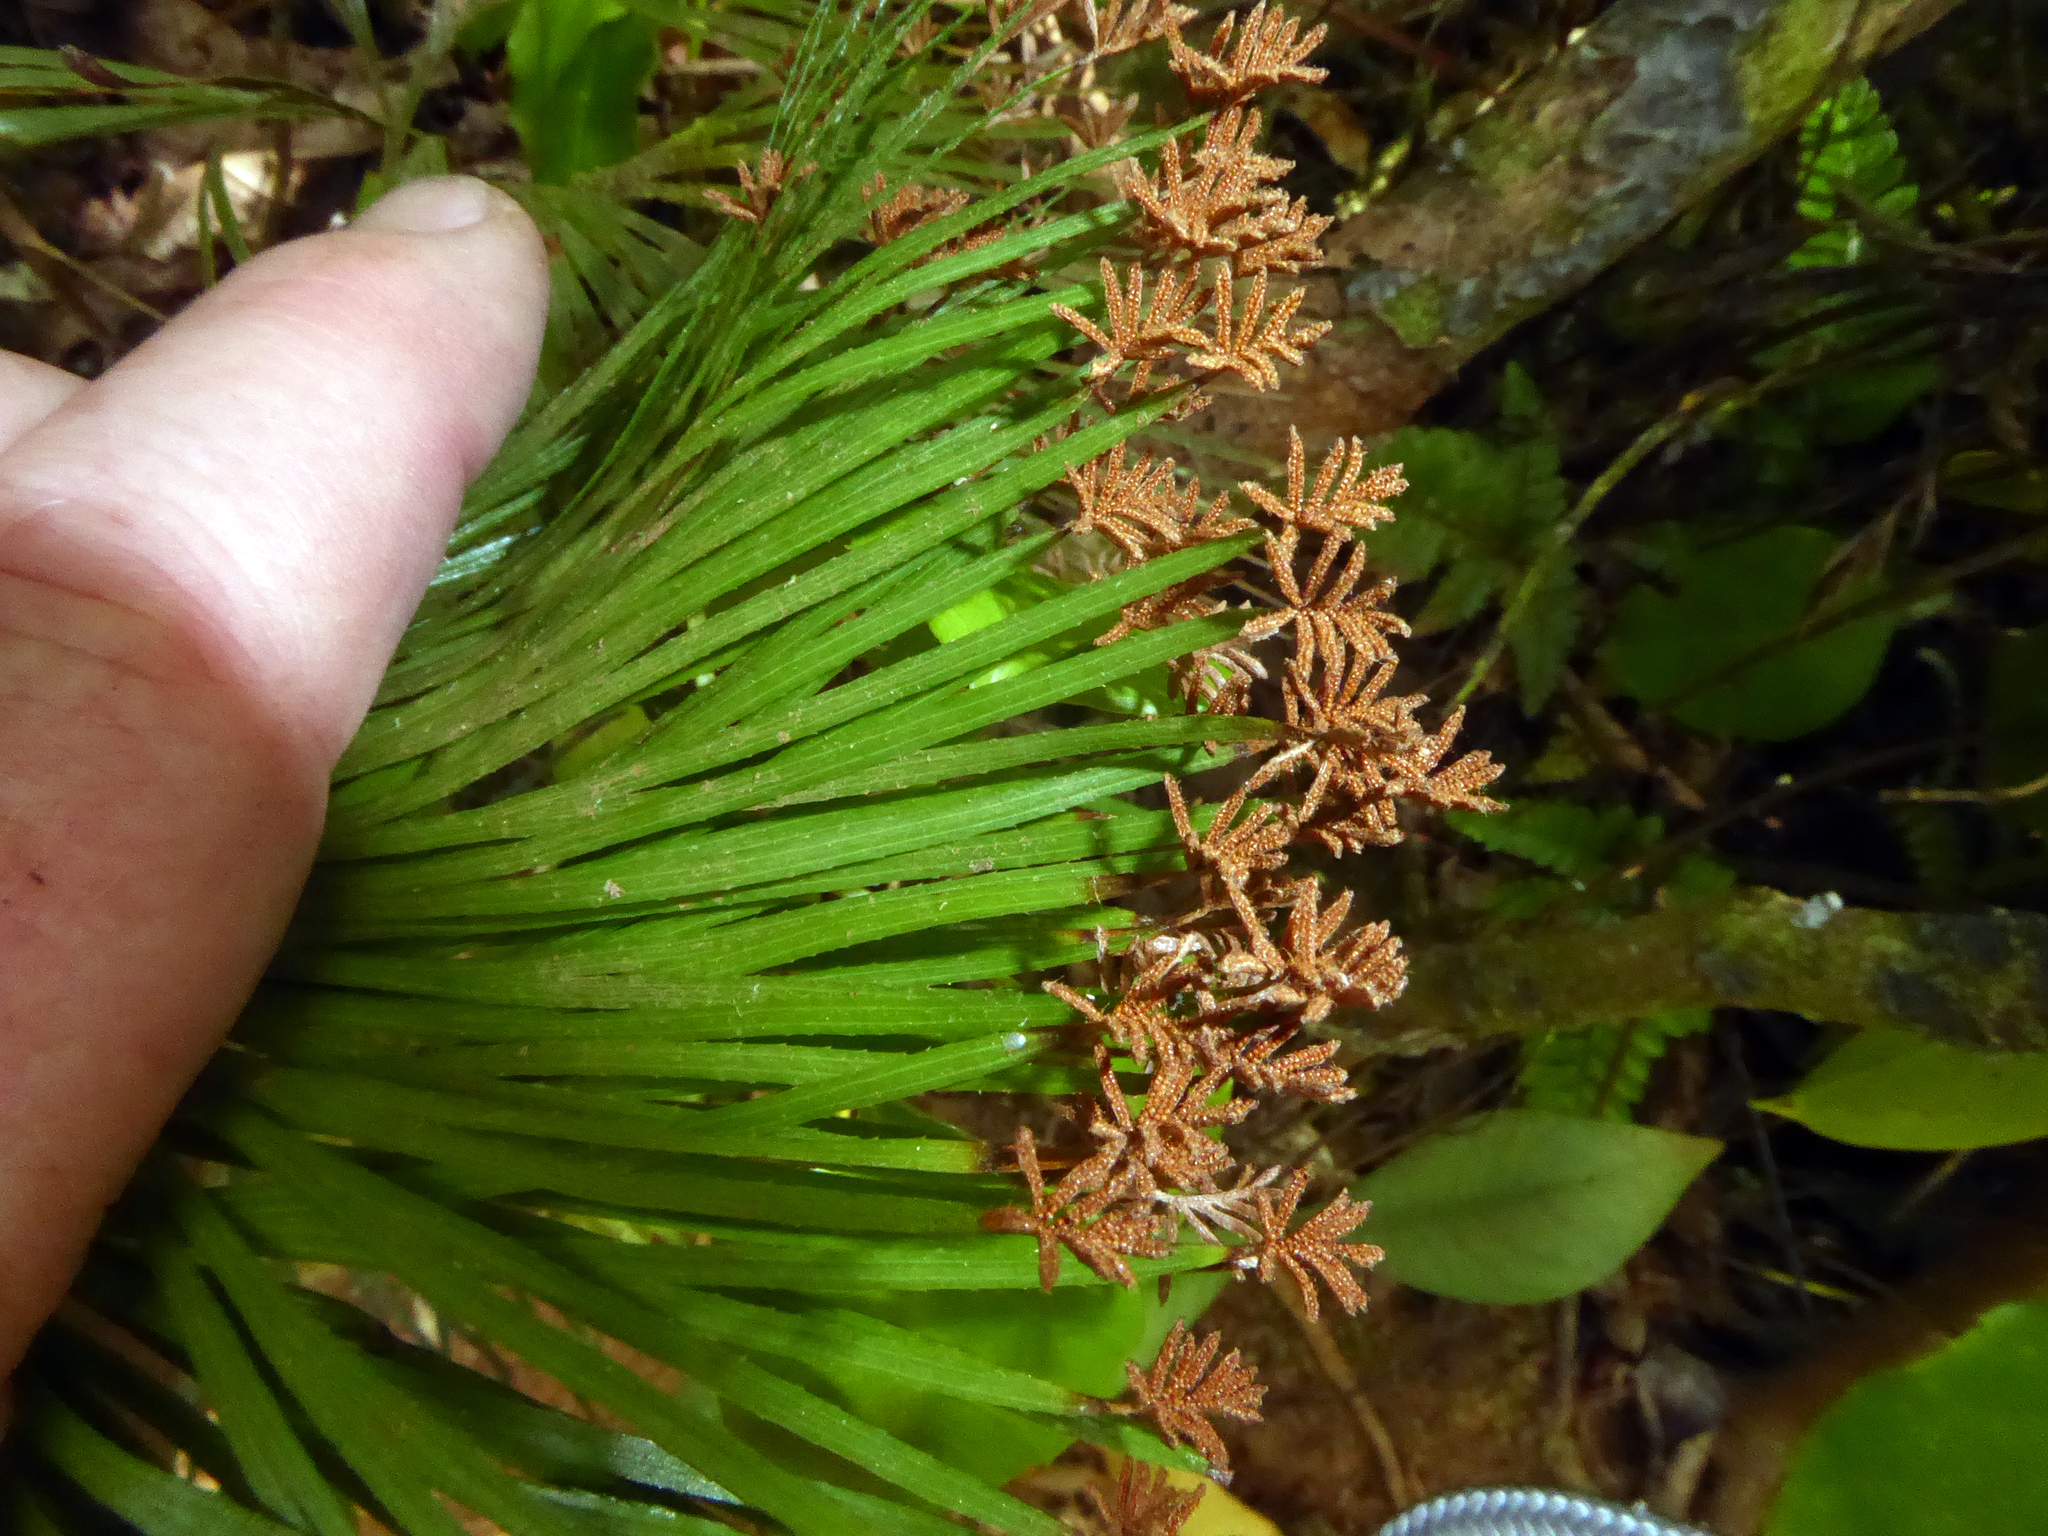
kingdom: Plantae
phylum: Tracheophyta
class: Polypodiopsida
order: Schizaeales
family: Schizaeaceae
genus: Schizaea
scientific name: Schizaea dichotoma
